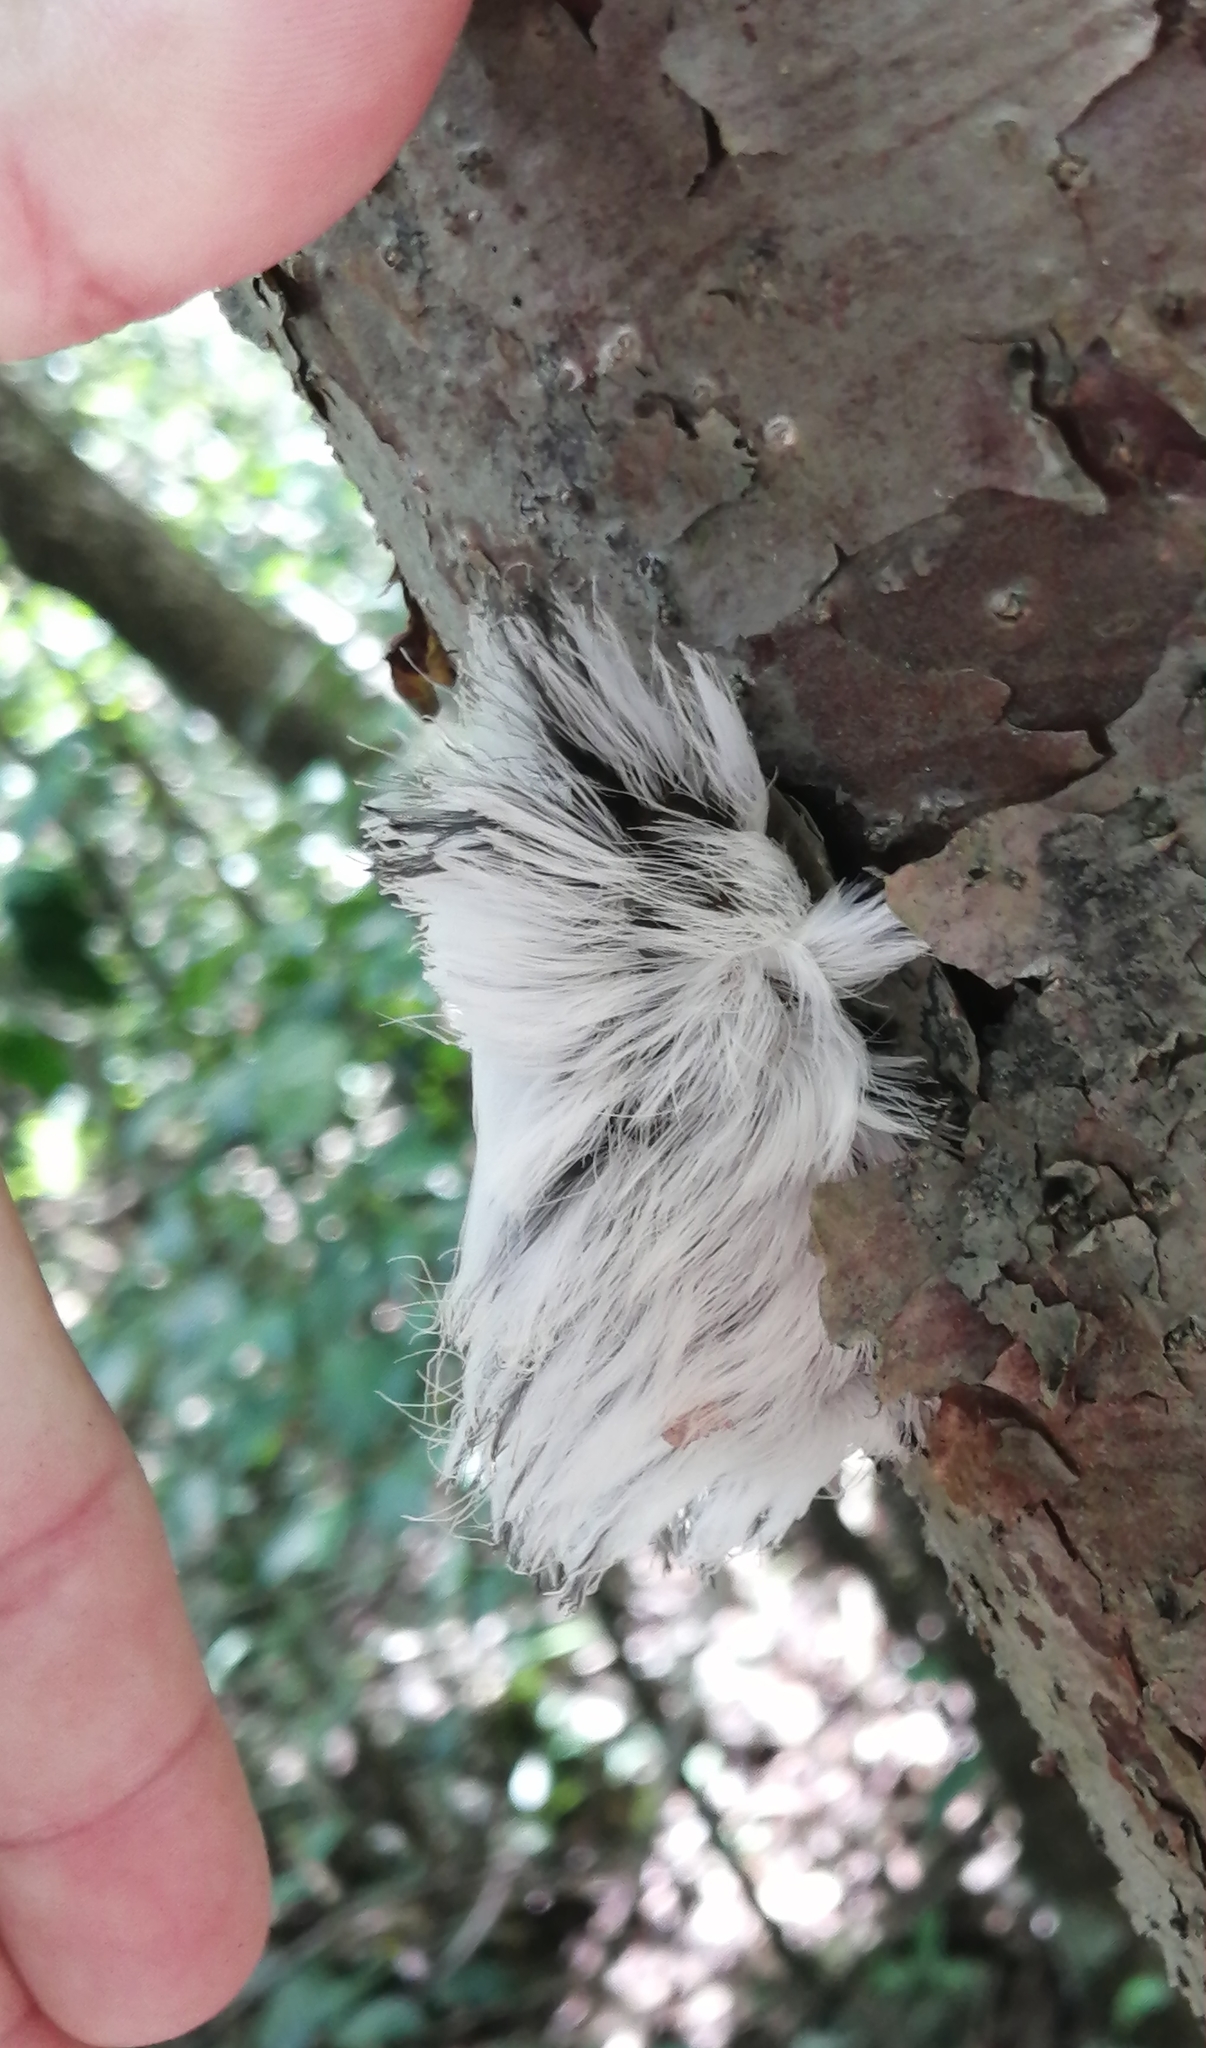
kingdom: Animalia
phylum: Arthropoda
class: Insecta
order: Lepidoptera
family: Megalopygidae
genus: Podalia
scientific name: Podalia orsilochus
